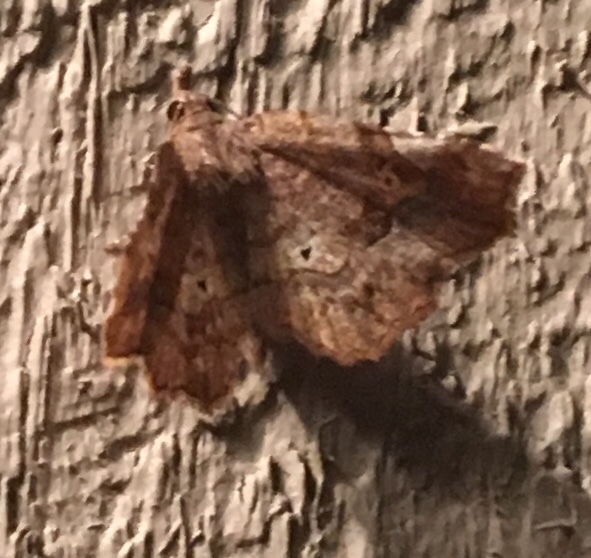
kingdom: Animalia
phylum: Arthropoda
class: Insecta
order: Lepidoptera
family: Erebidae
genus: Pangrapta
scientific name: Pangrapta decoralis
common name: Decorated owlet
